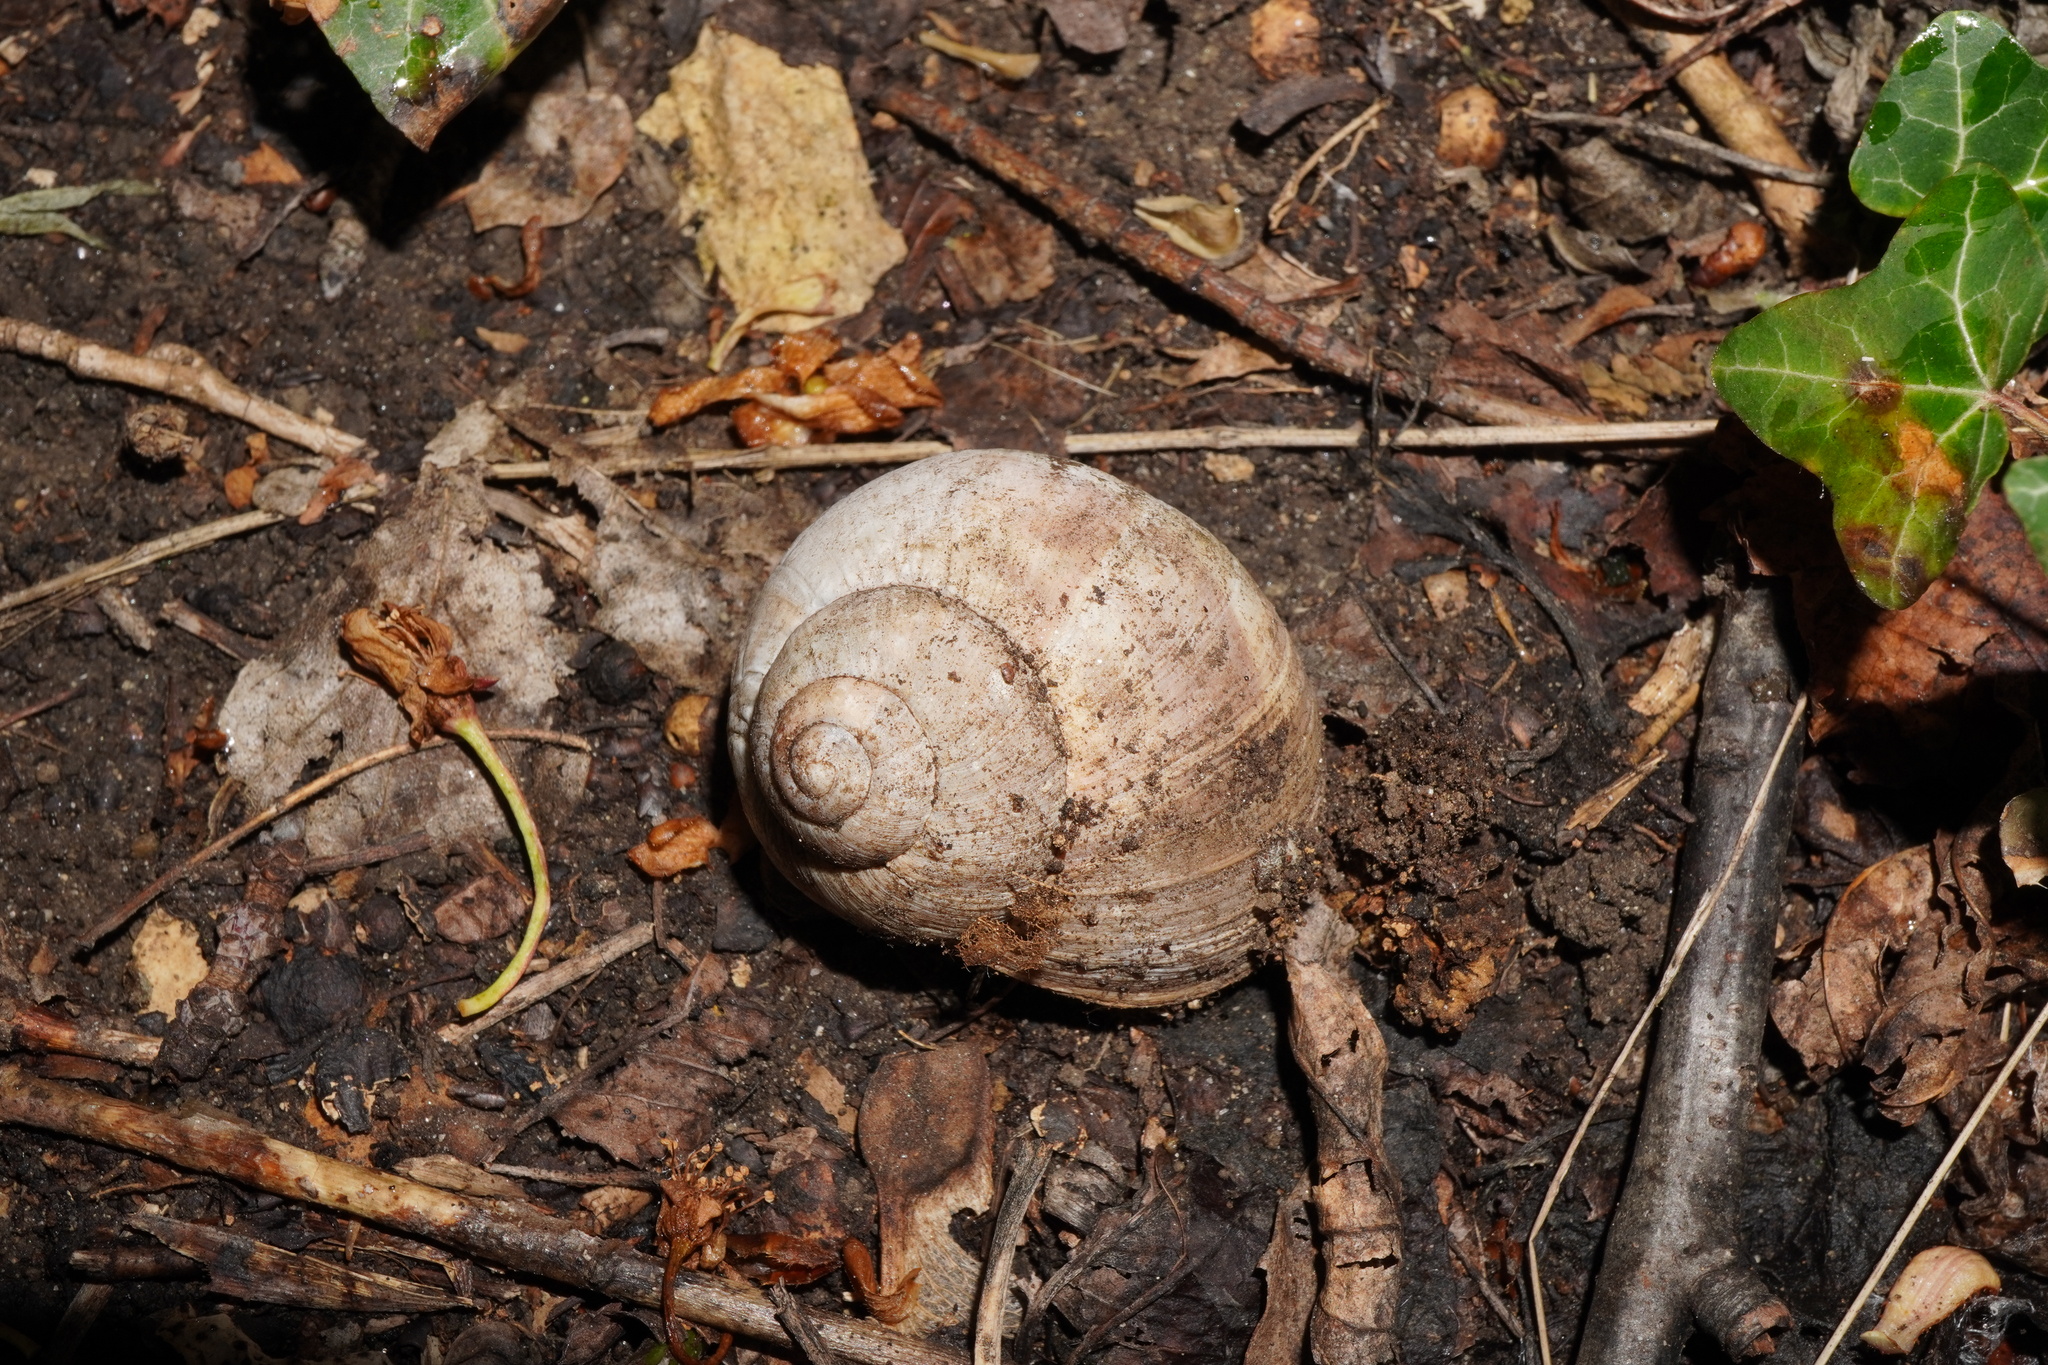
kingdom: Animalia
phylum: Mollusca
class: Gastropoda
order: Stylommatophora
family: Helicidae
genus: Helix
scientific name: Helix pomatia
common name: Roman snail
